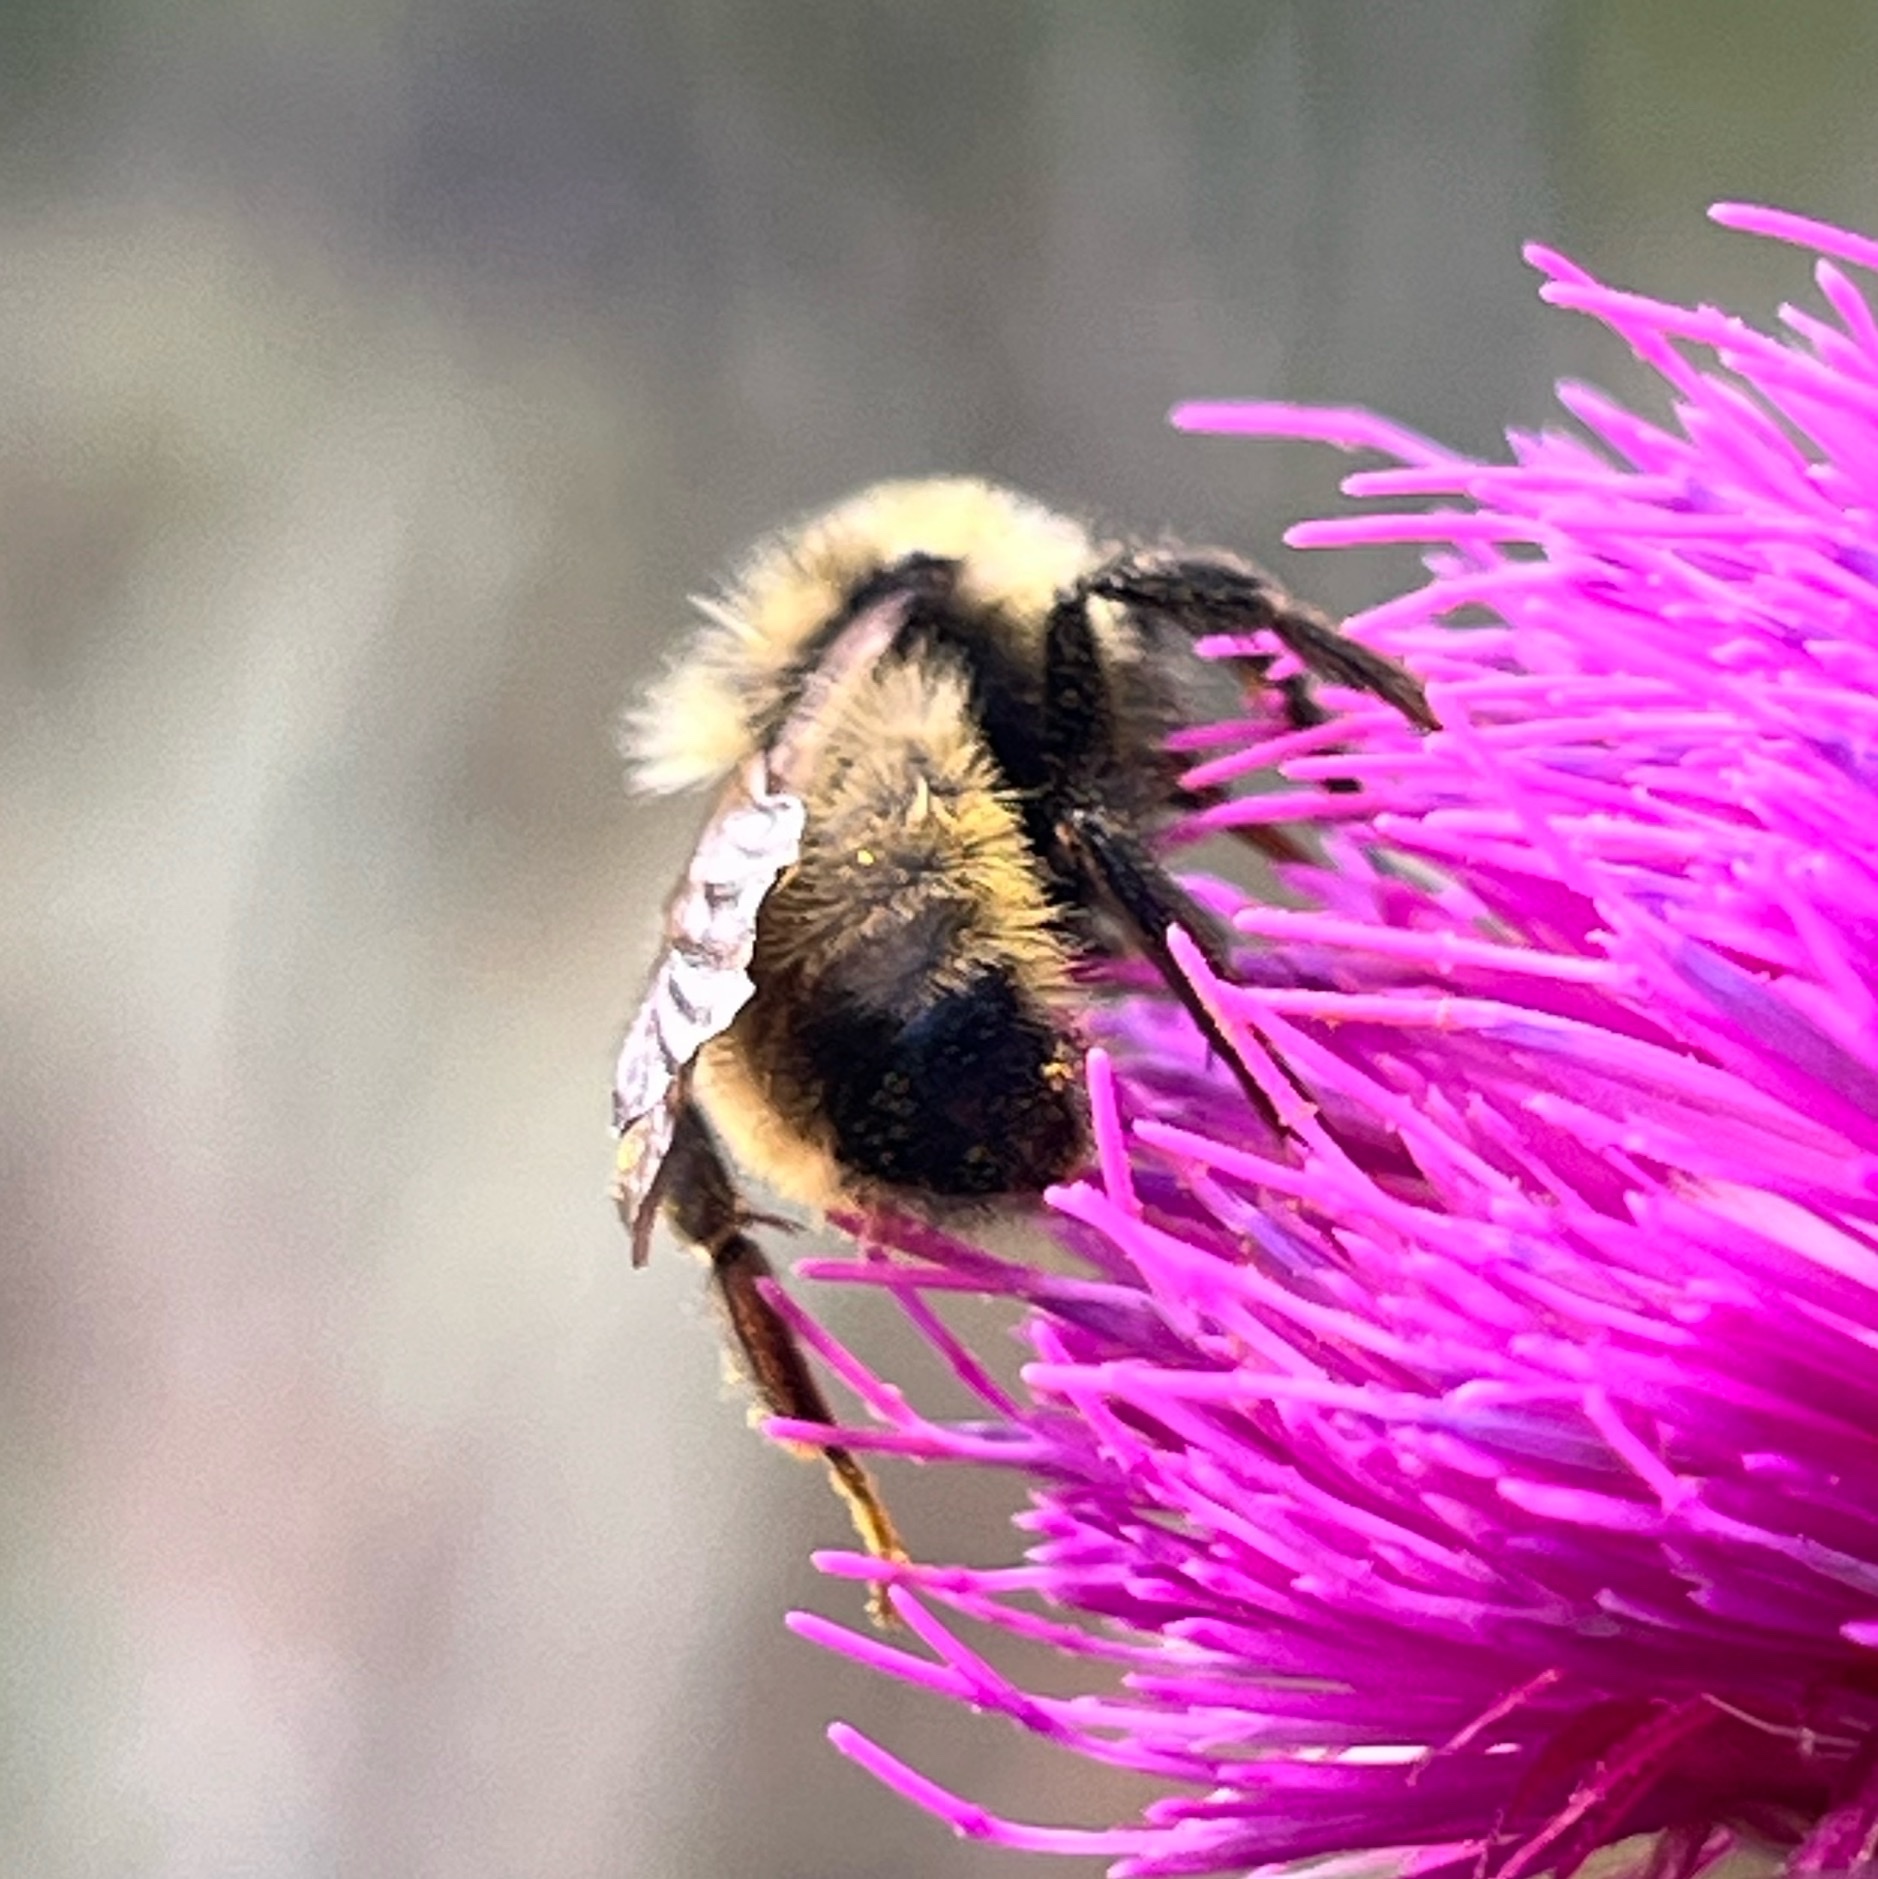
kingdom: Animalia
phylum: Arthropoda
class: Insecta
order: Hymenoptera
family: Apidae
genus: Bombus
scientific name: Bombus insularis
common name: Indiscriminate cuckoo bumble bee
